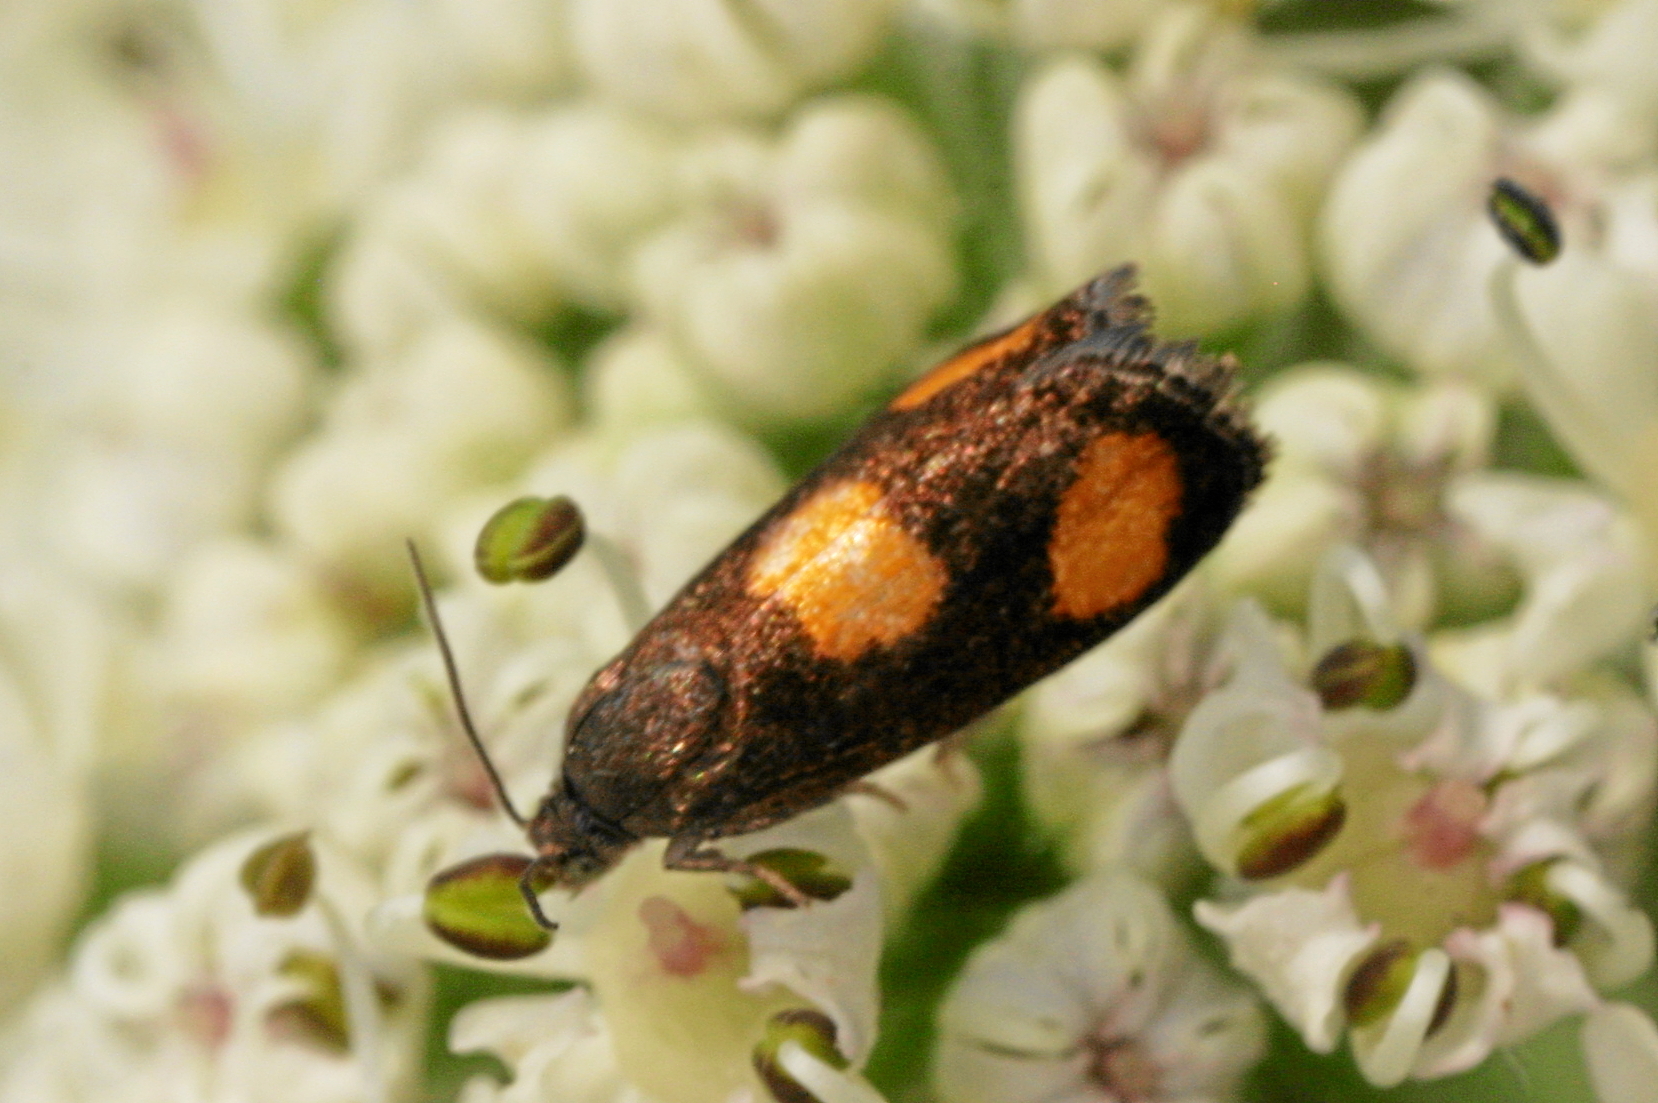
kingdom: Animalia
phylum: Arthropoda
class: Insecta
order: Lepidoptera
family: Tortricidae
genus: Pammene
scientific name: Pammene aurana
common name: Orange-spot piercer
